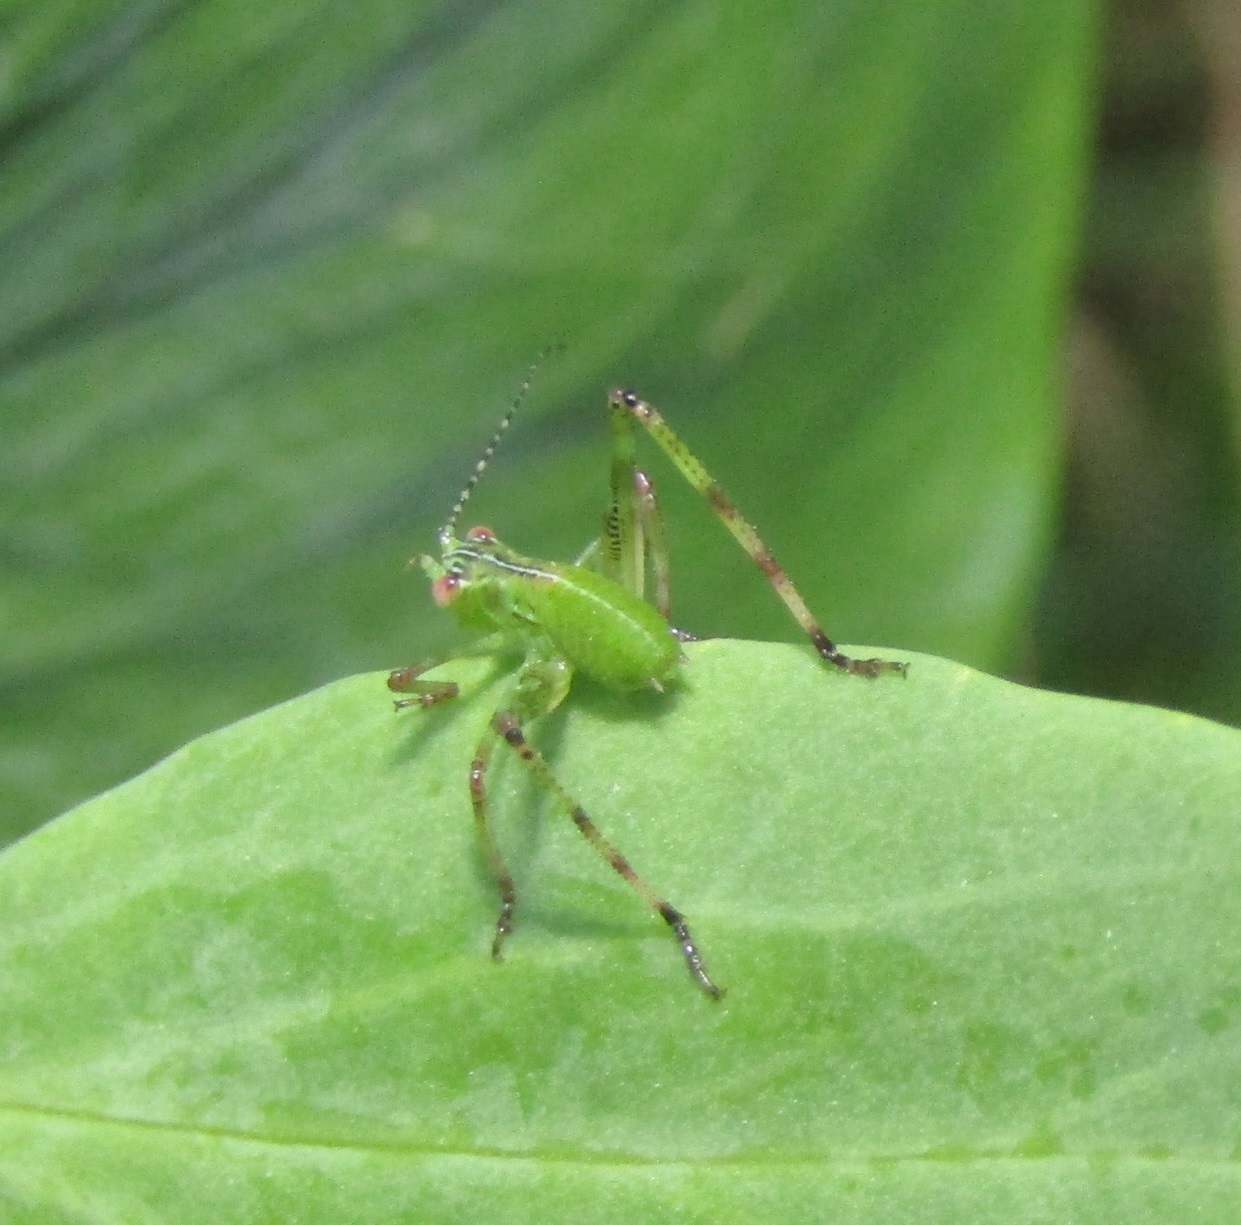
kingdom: Animalia
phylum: Arthropoda
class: Insecta
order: Orthoptera
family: Tettigoniidae
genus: Caedicia
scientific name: Caedicia simplex
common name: Common garden katydid
